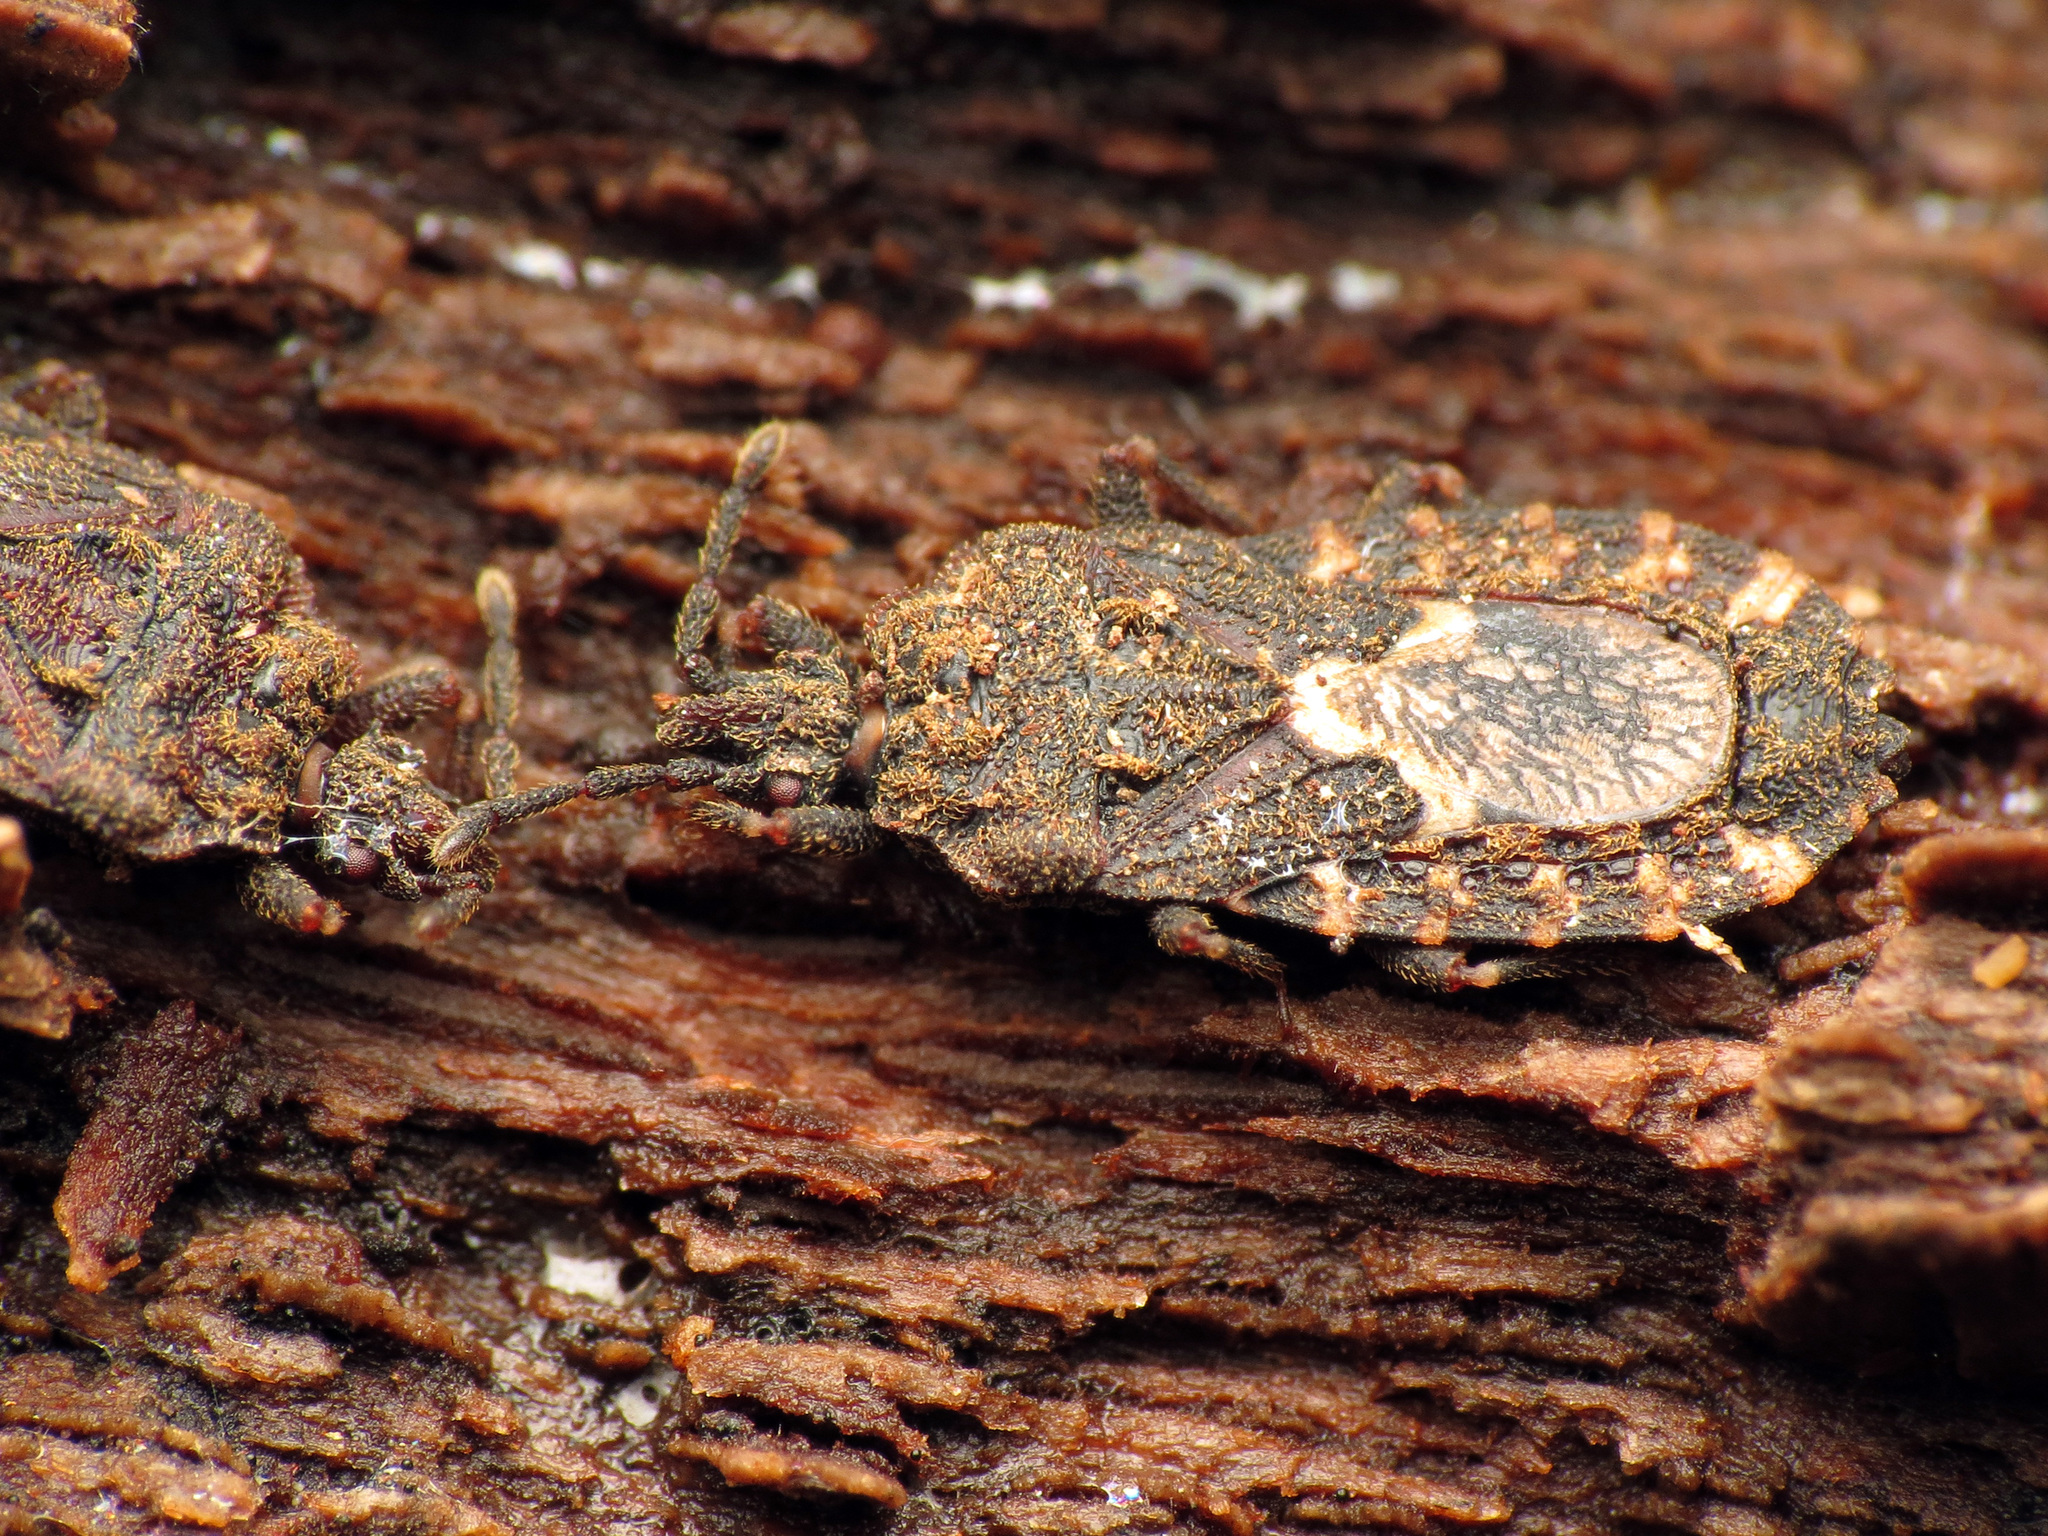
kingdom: Animalia
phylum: Arthropoda
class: Insecta
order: Hemiptera
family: Aradidae
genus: Mezira
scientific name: Mezira
